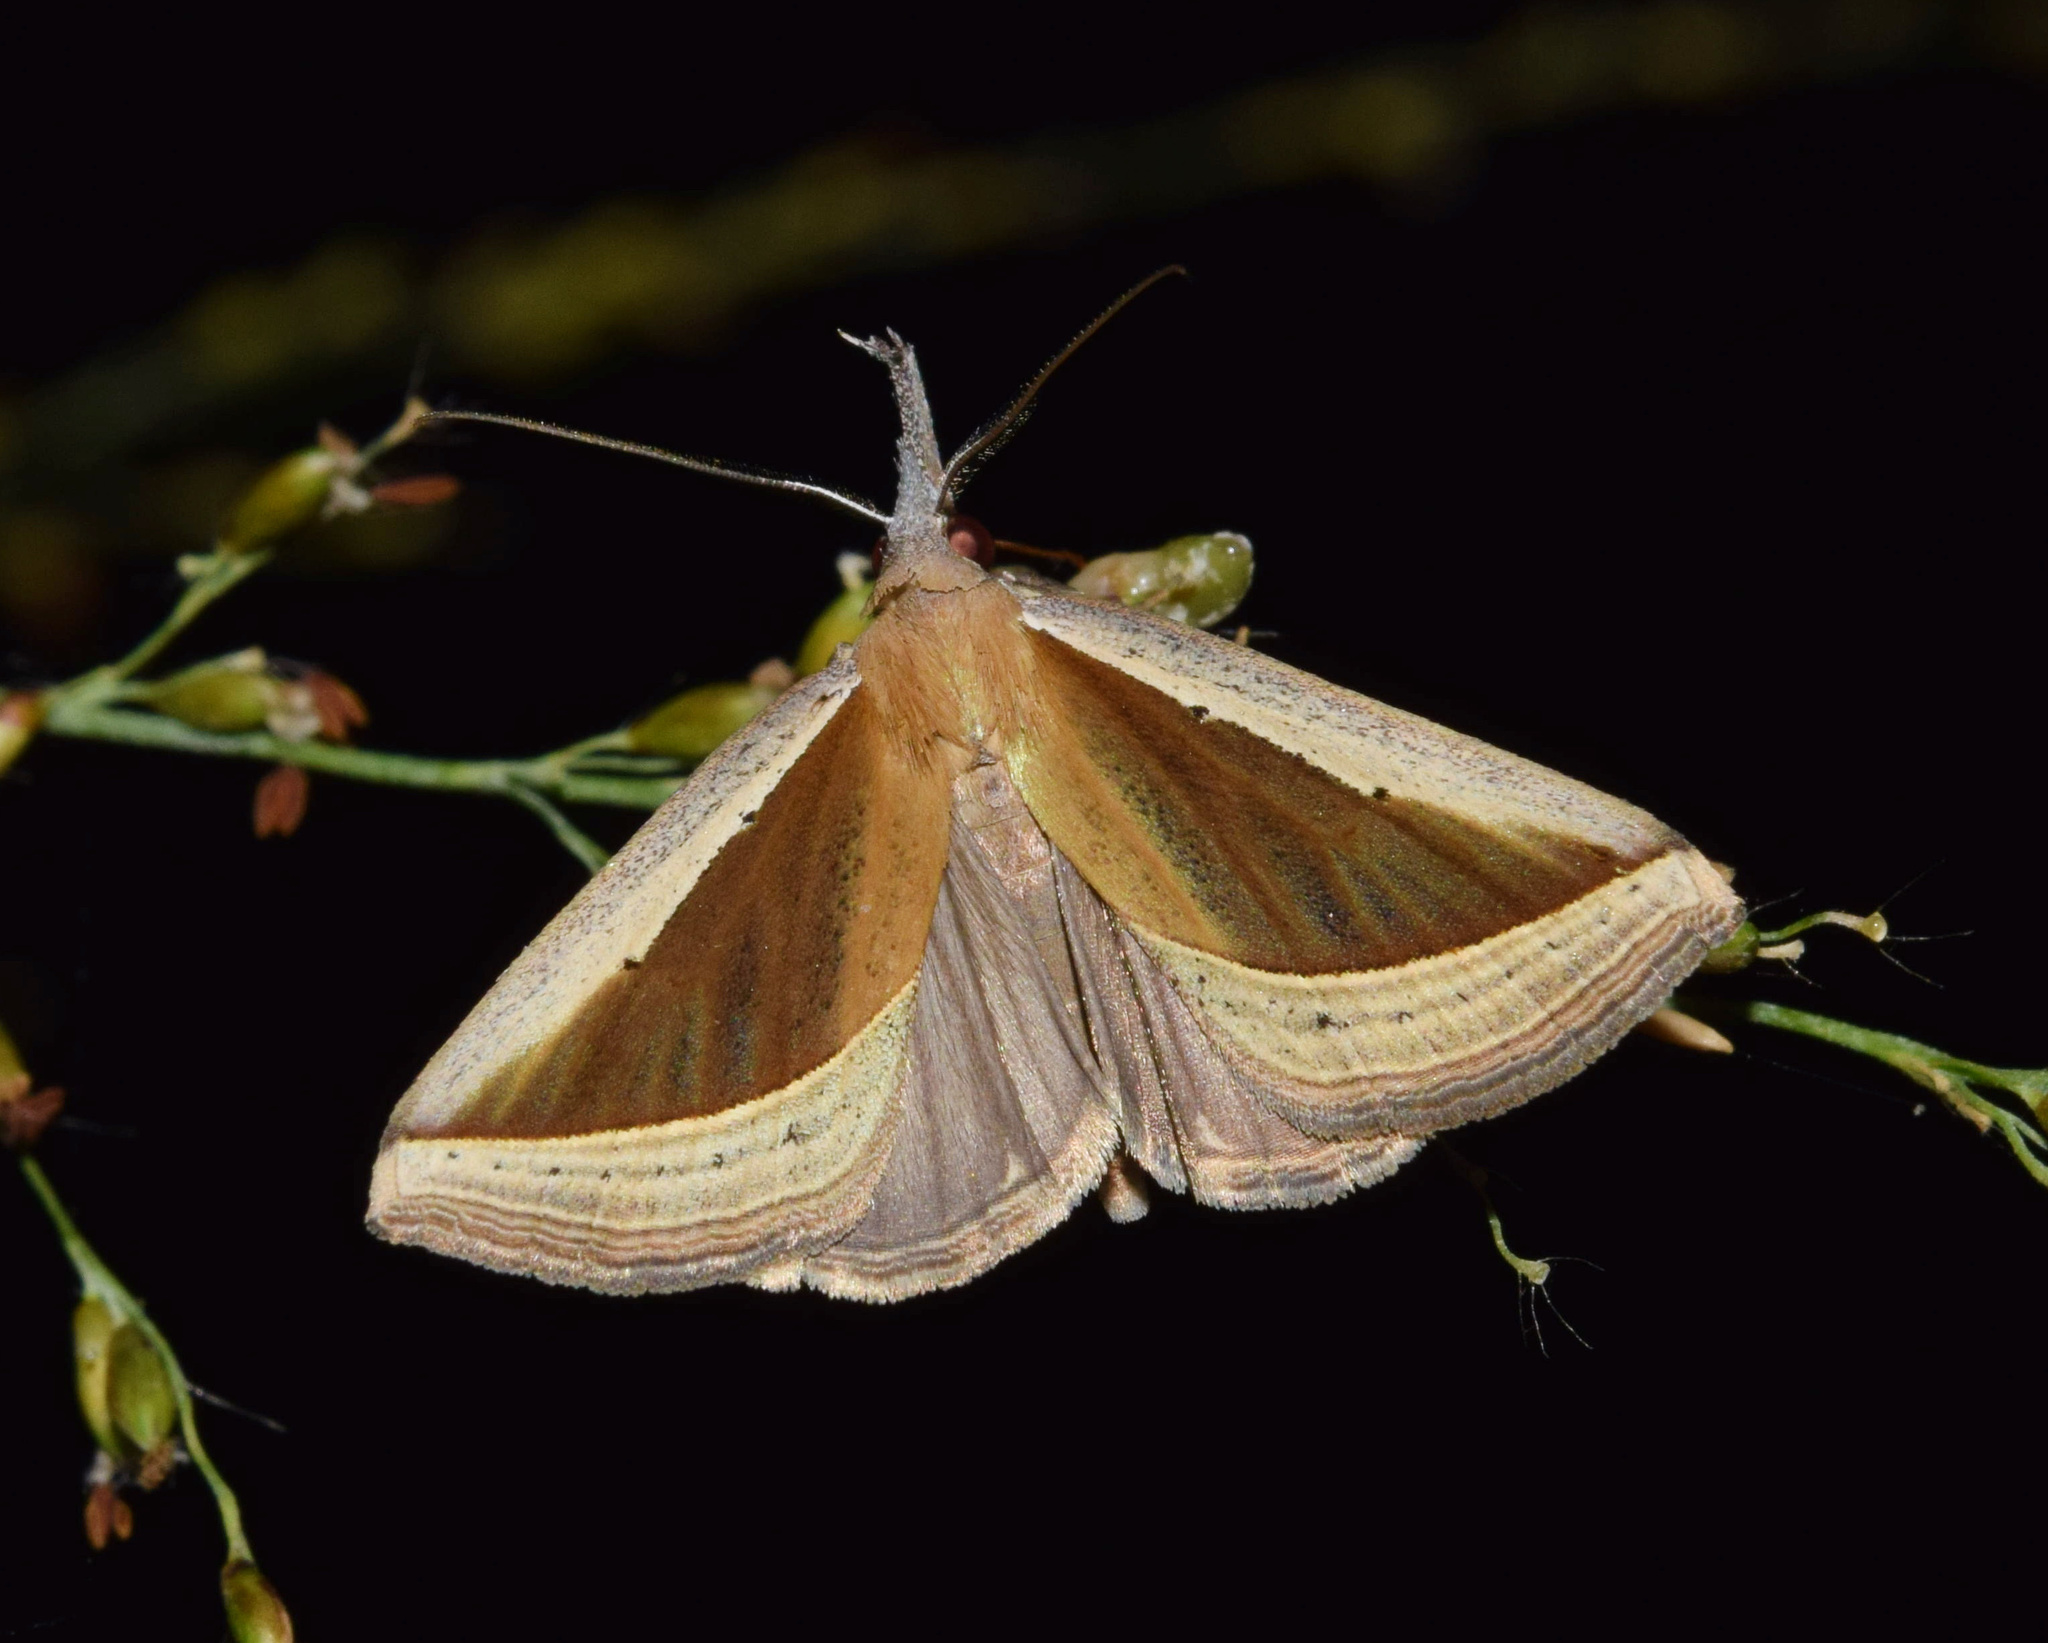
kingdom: Animalia
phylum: Arthropoda
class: Insecta
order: Lepidoptera
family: Erebidae
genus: Hypena
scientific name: Hypena conscitalis
